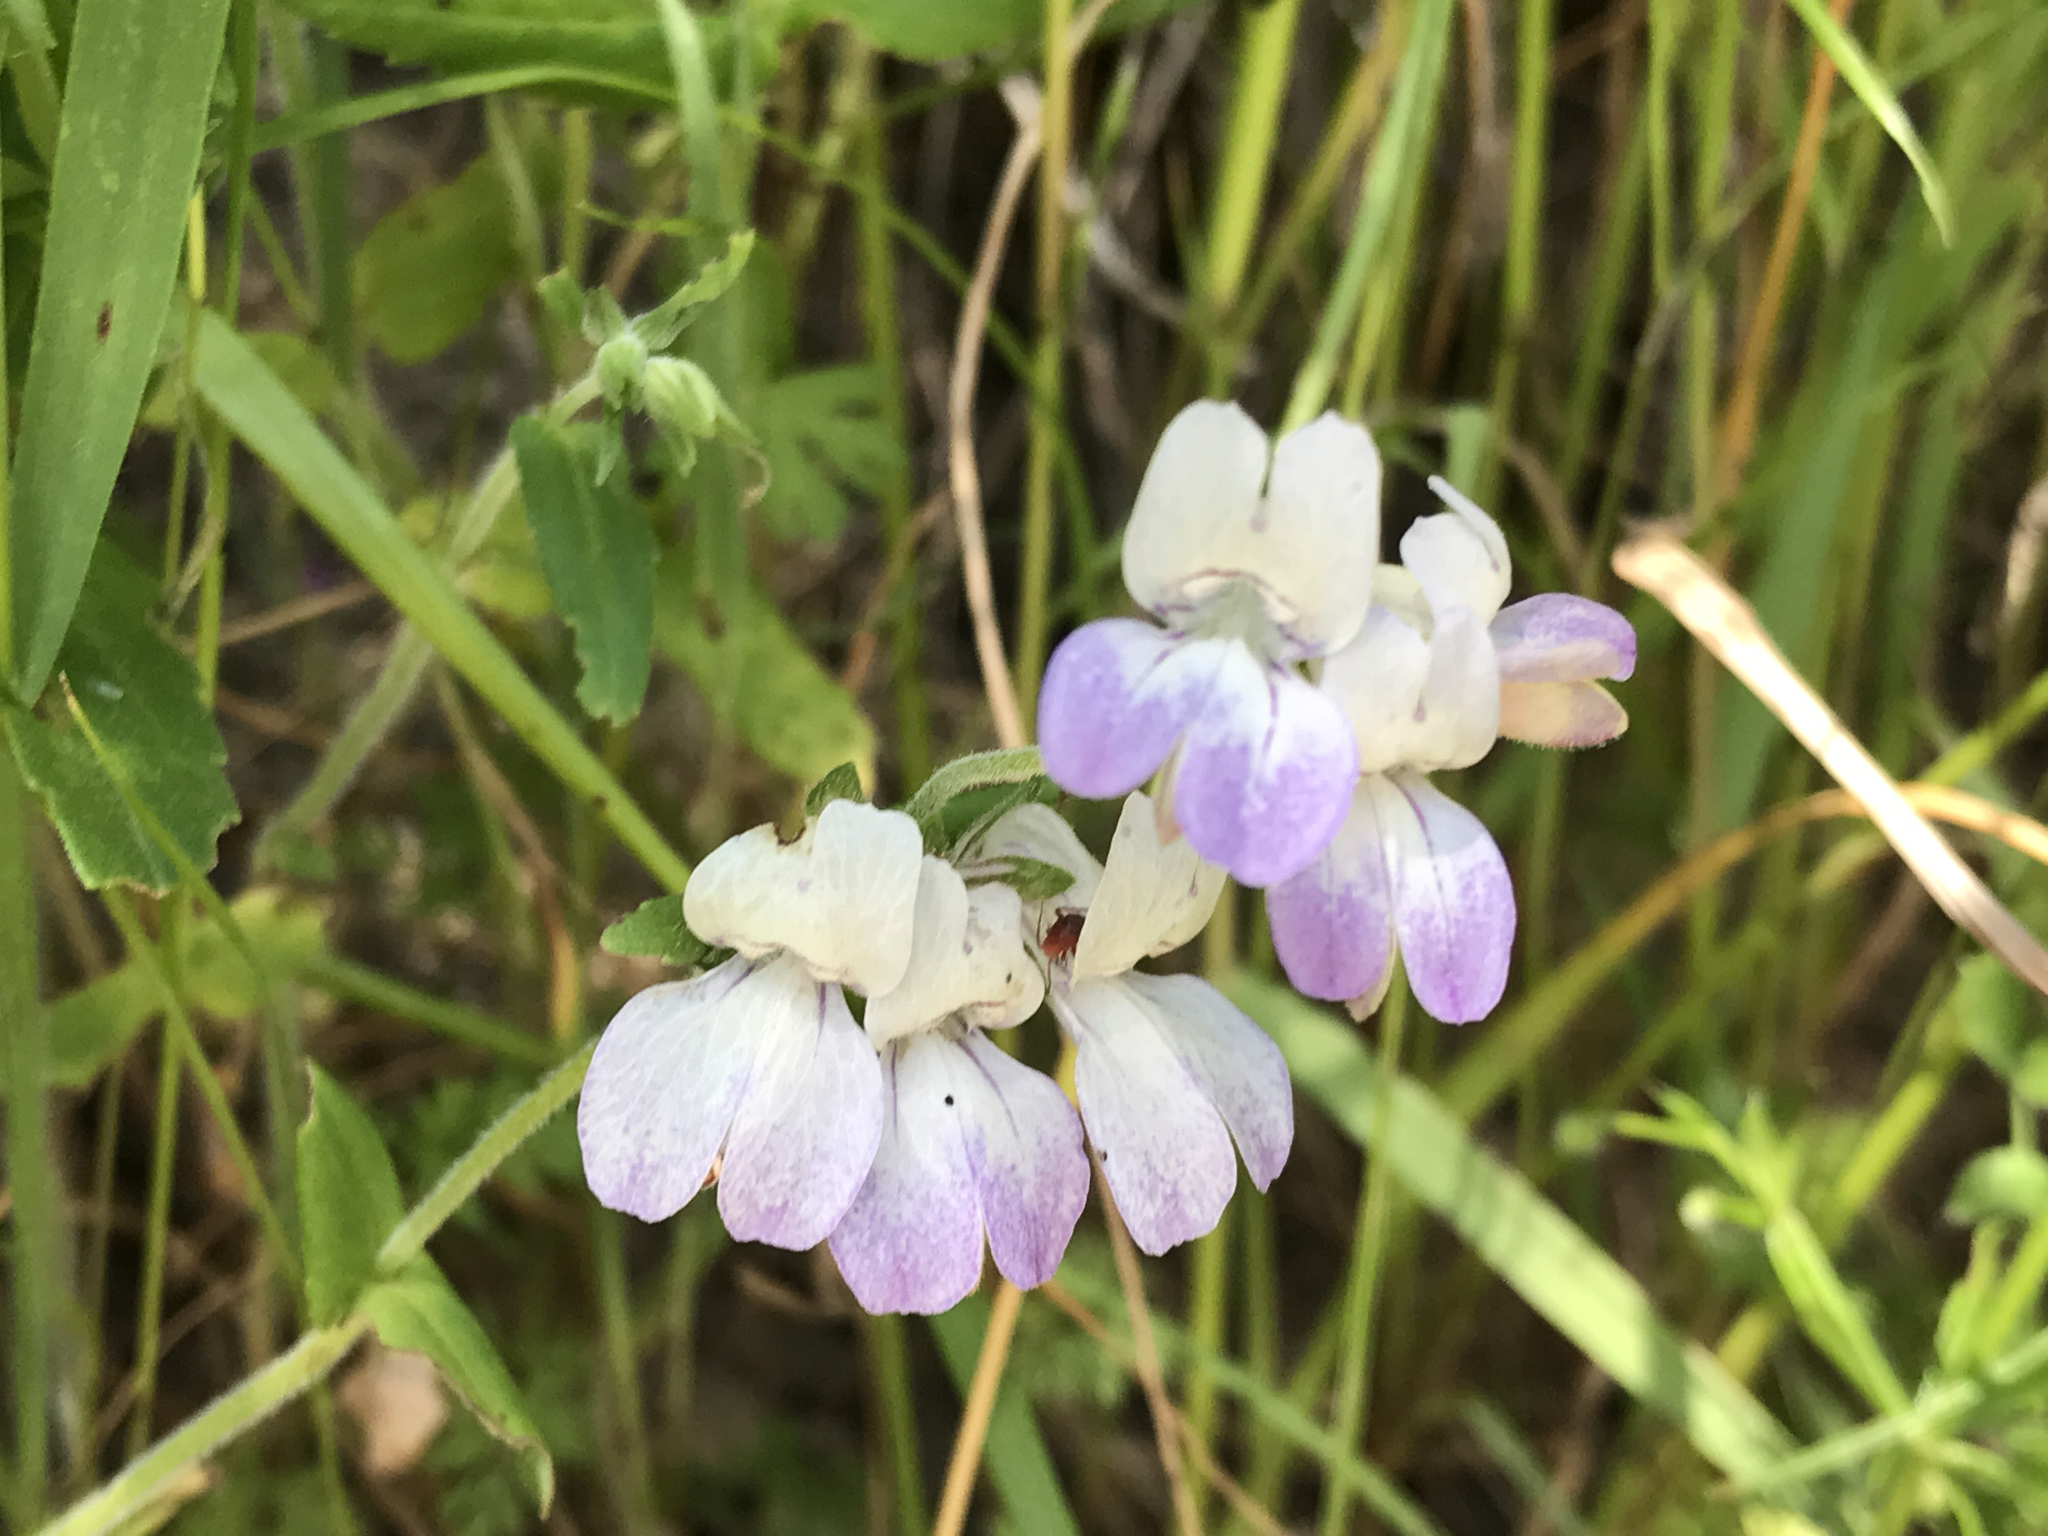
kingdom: Plantae
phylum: Tracheophyta
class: Magnoliopsida
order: Lamiales
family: Plantaginaceae
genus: Collinsia
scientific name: Collinsia heterophylla
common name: Chinese-houses
